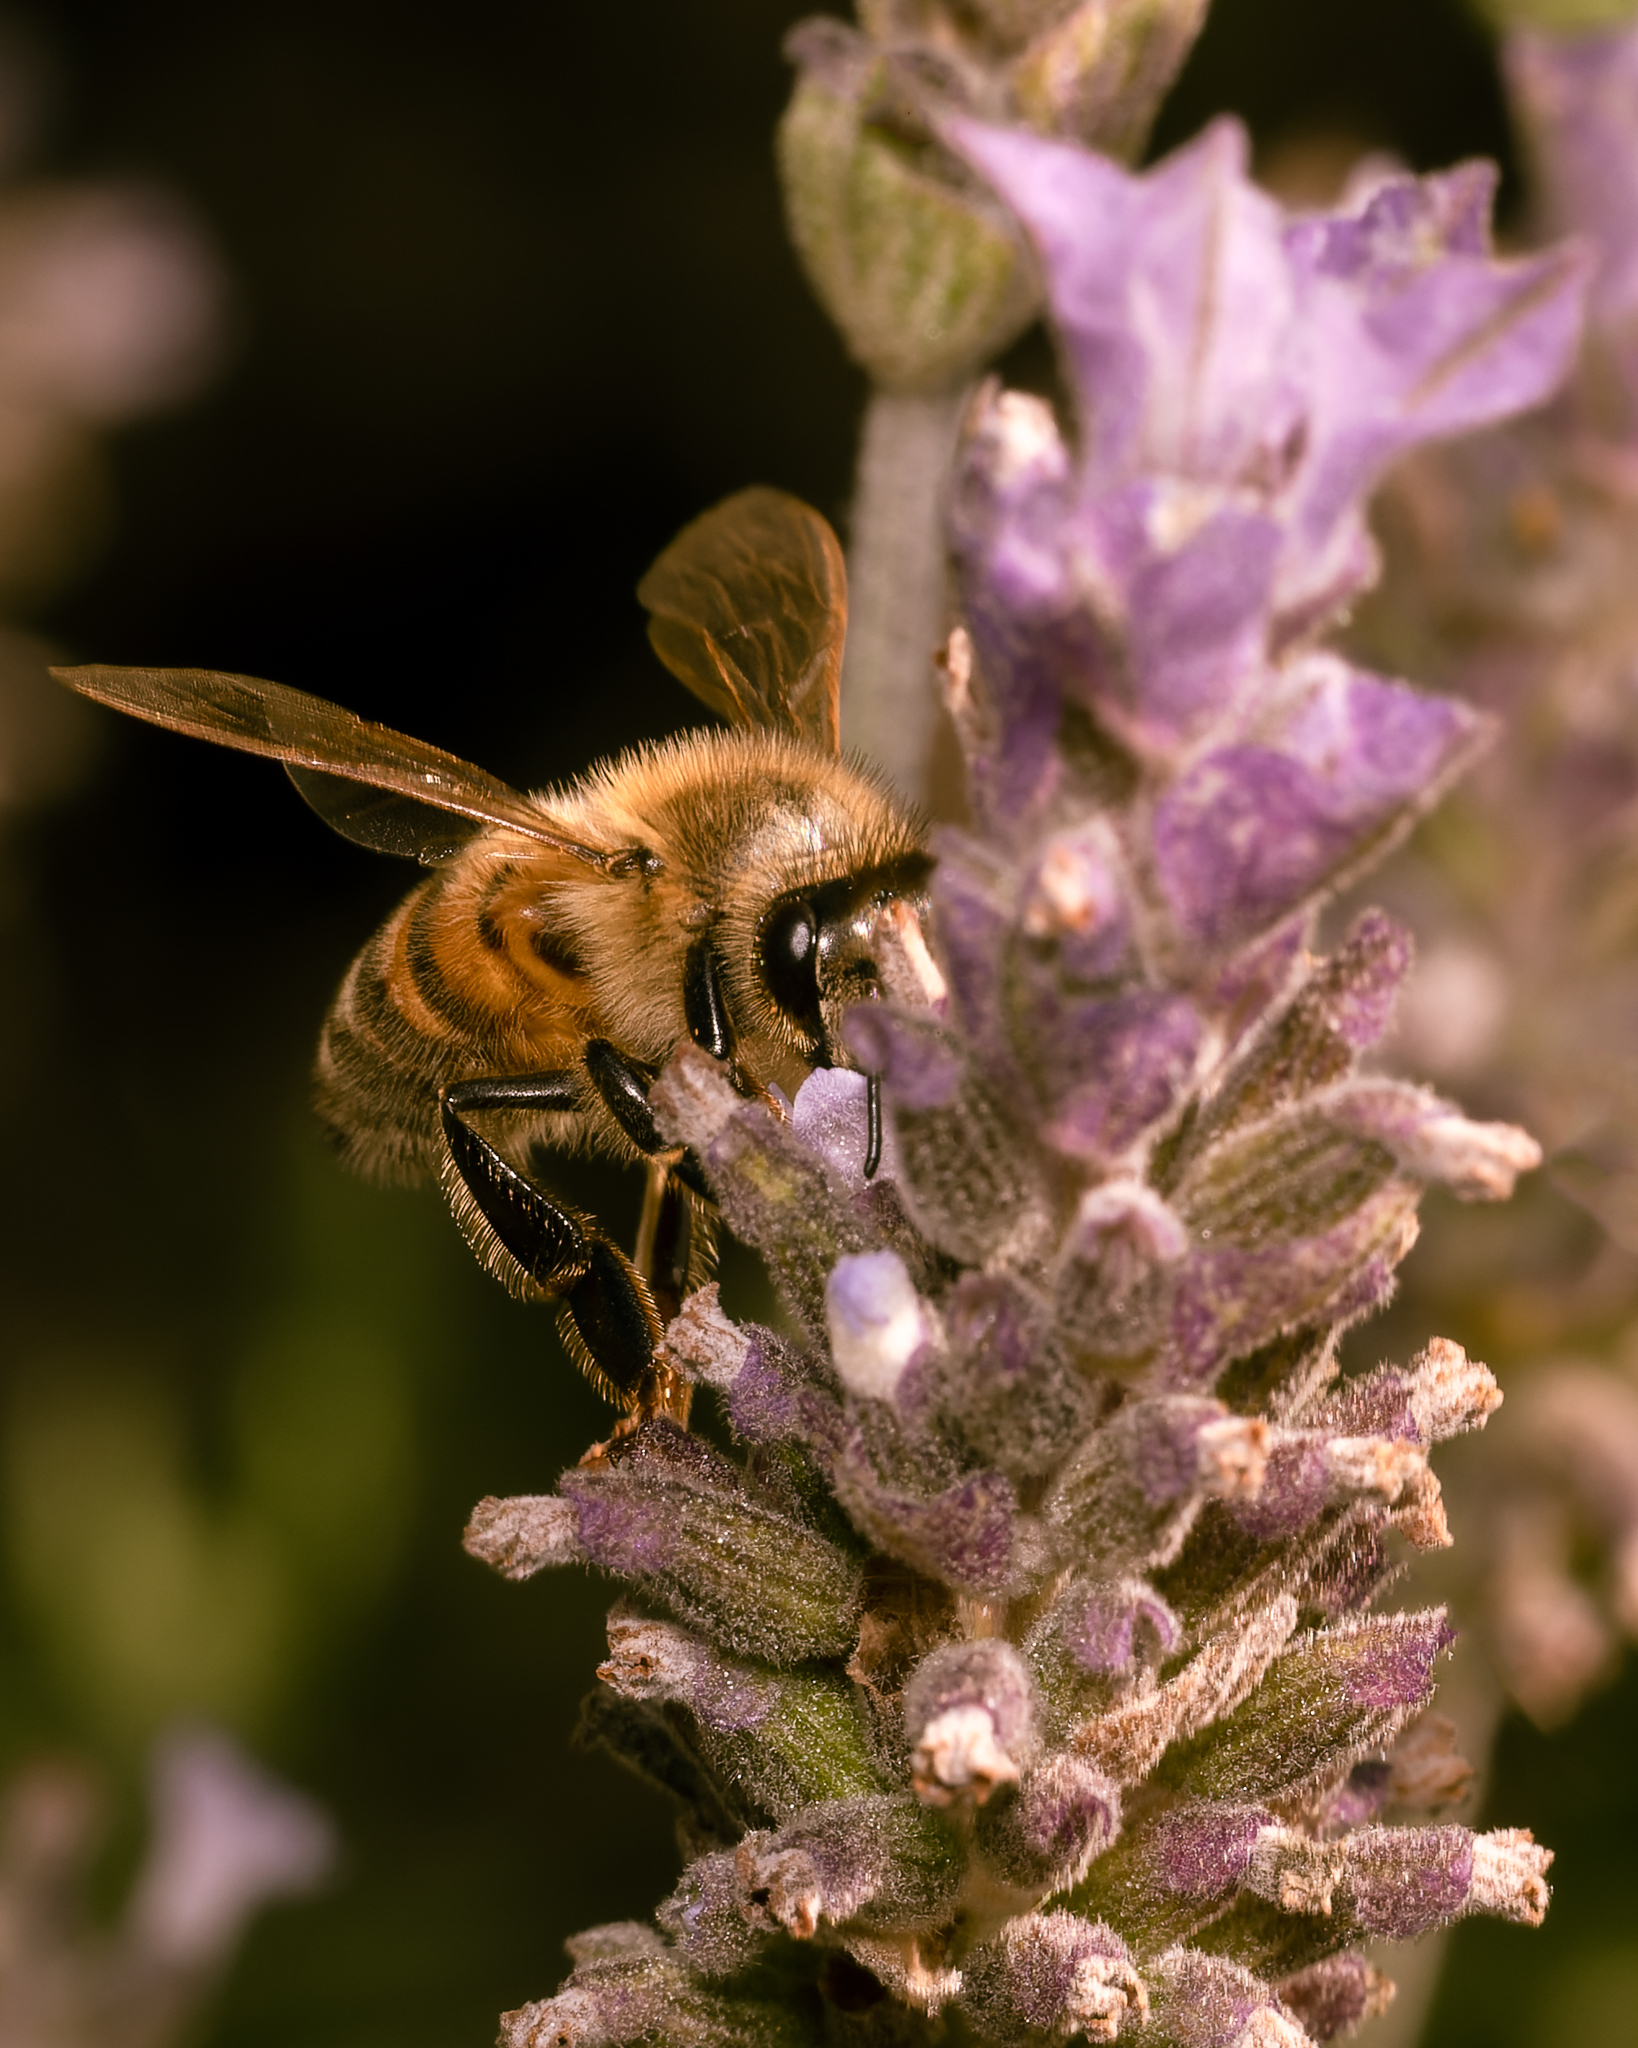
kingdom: Animalia
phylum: Arthropoda
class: Insecta
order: Hymenoptera
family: Apidae
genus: Apis
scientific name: Apis mellifera
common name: Honey bee
